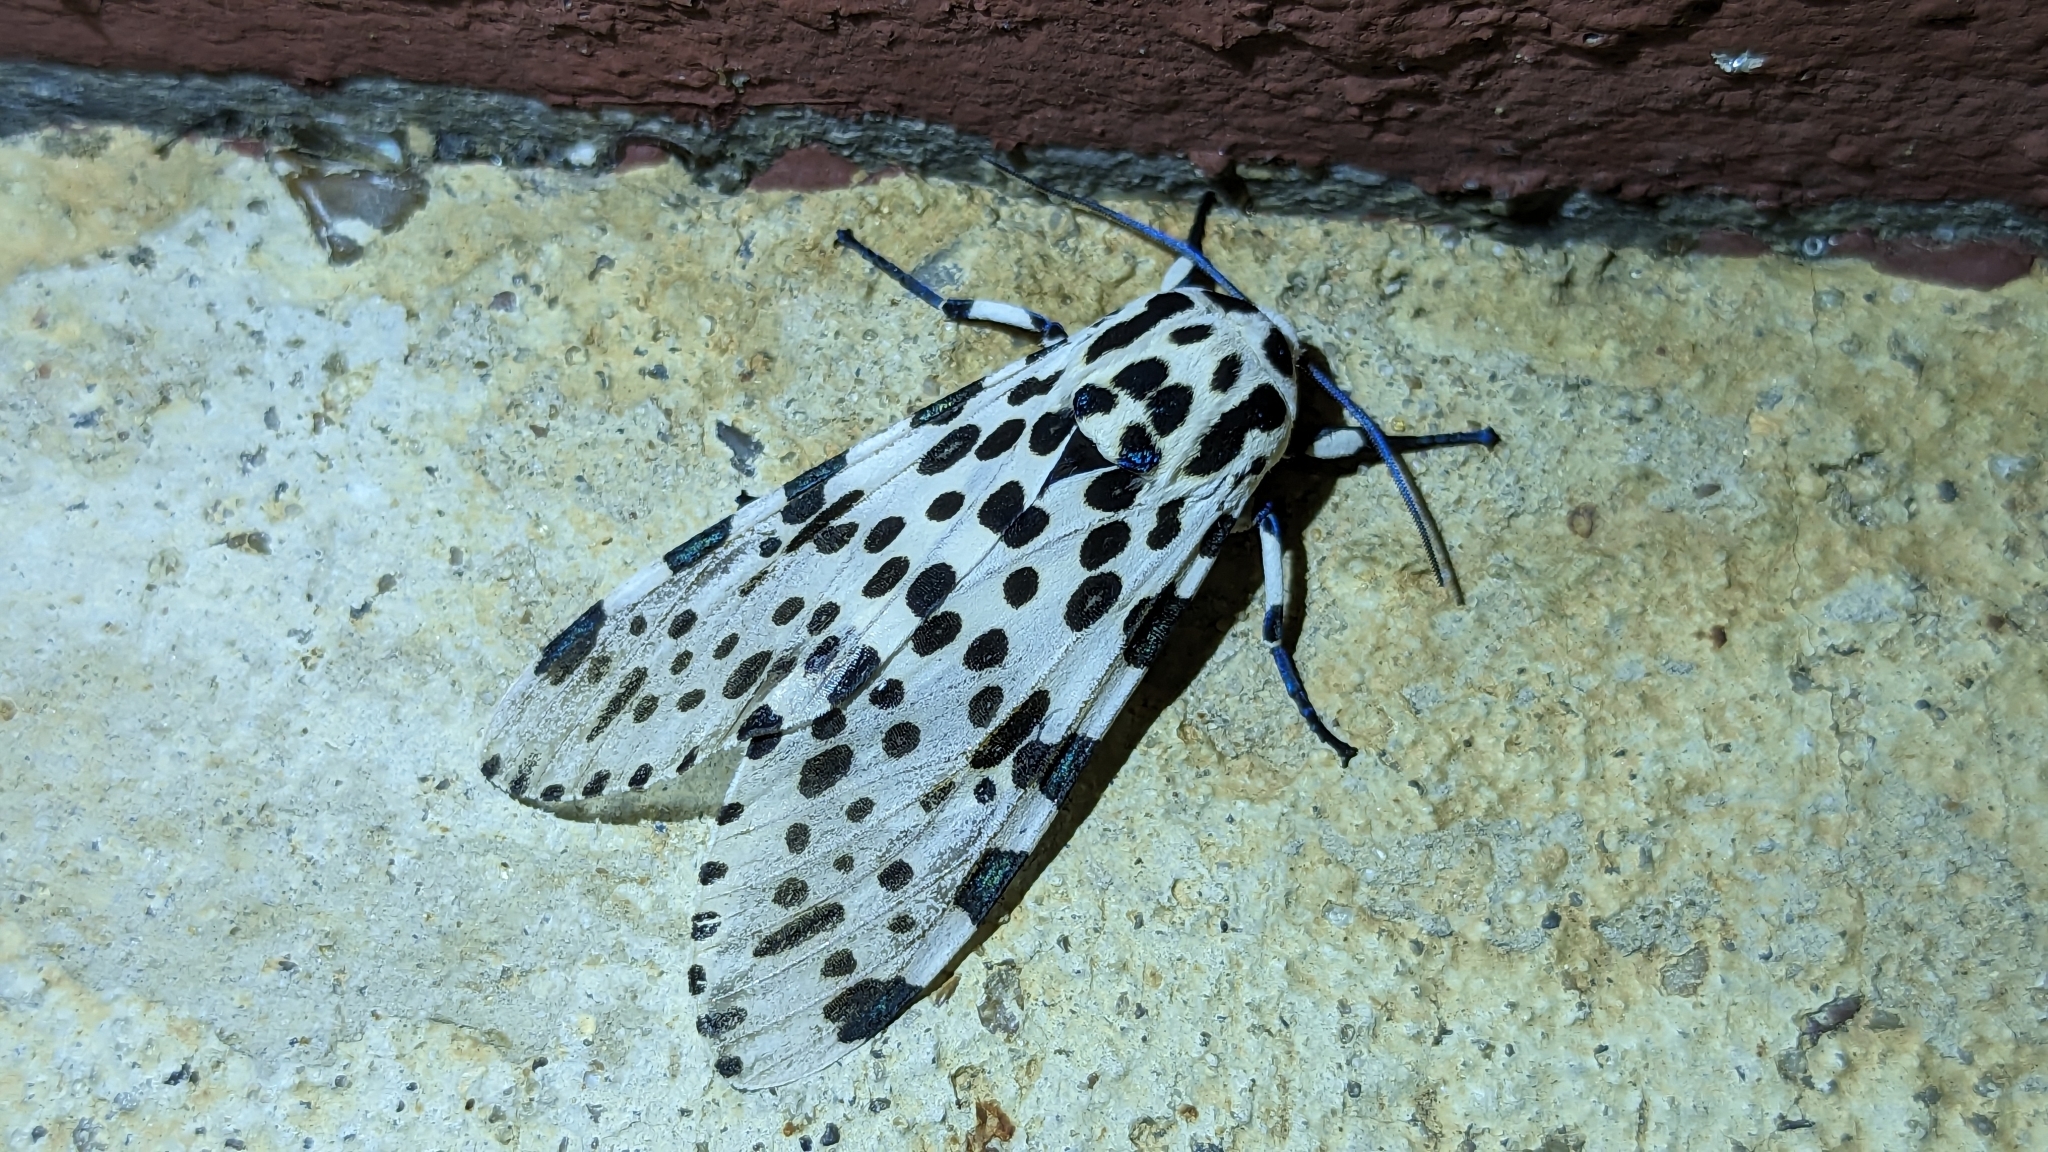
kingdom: Animalia
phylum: Arthropoda
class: Insecta
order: Lepidoptera
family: Erebidae
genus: Hypercompe
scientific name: Hypercompe scribonia
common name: Giant leopard moth
